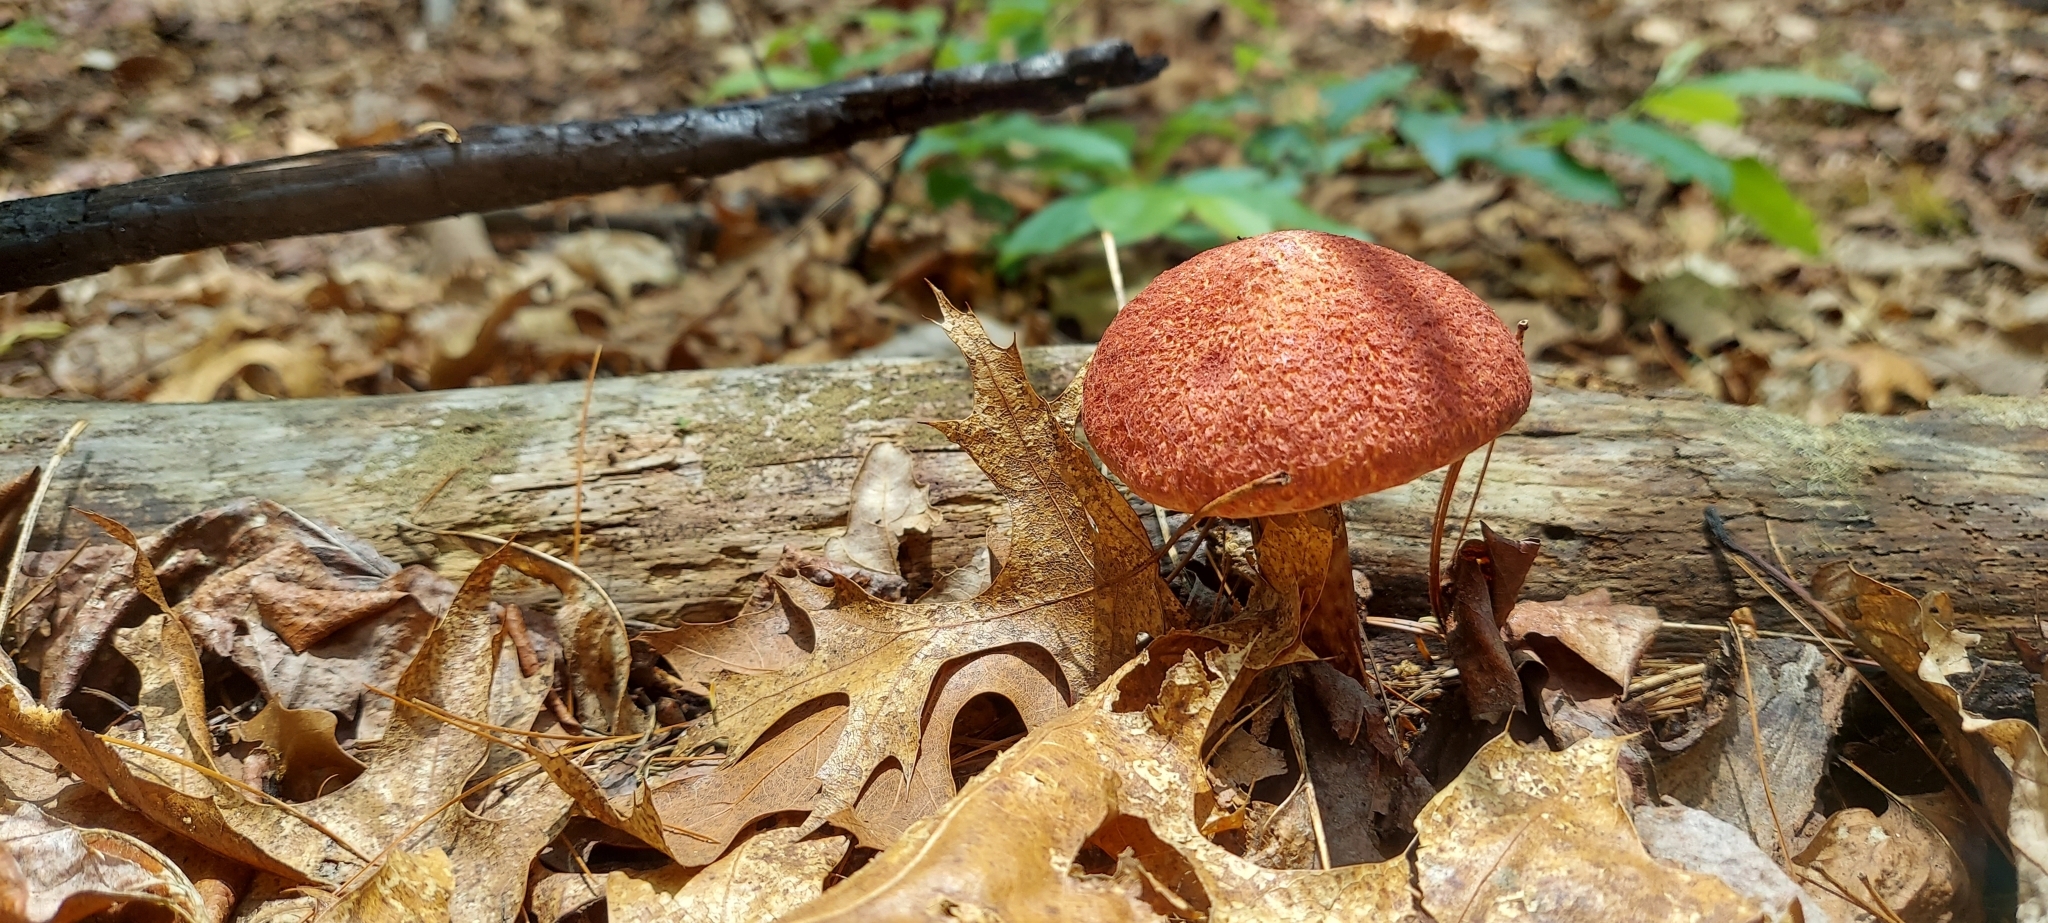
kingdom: Fungi
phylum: Basidiomycota
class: Agaricomycetes
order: Boletales
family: Suillaceae
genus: Suillus
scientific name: Suillus spraguei
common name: Painted suillus
